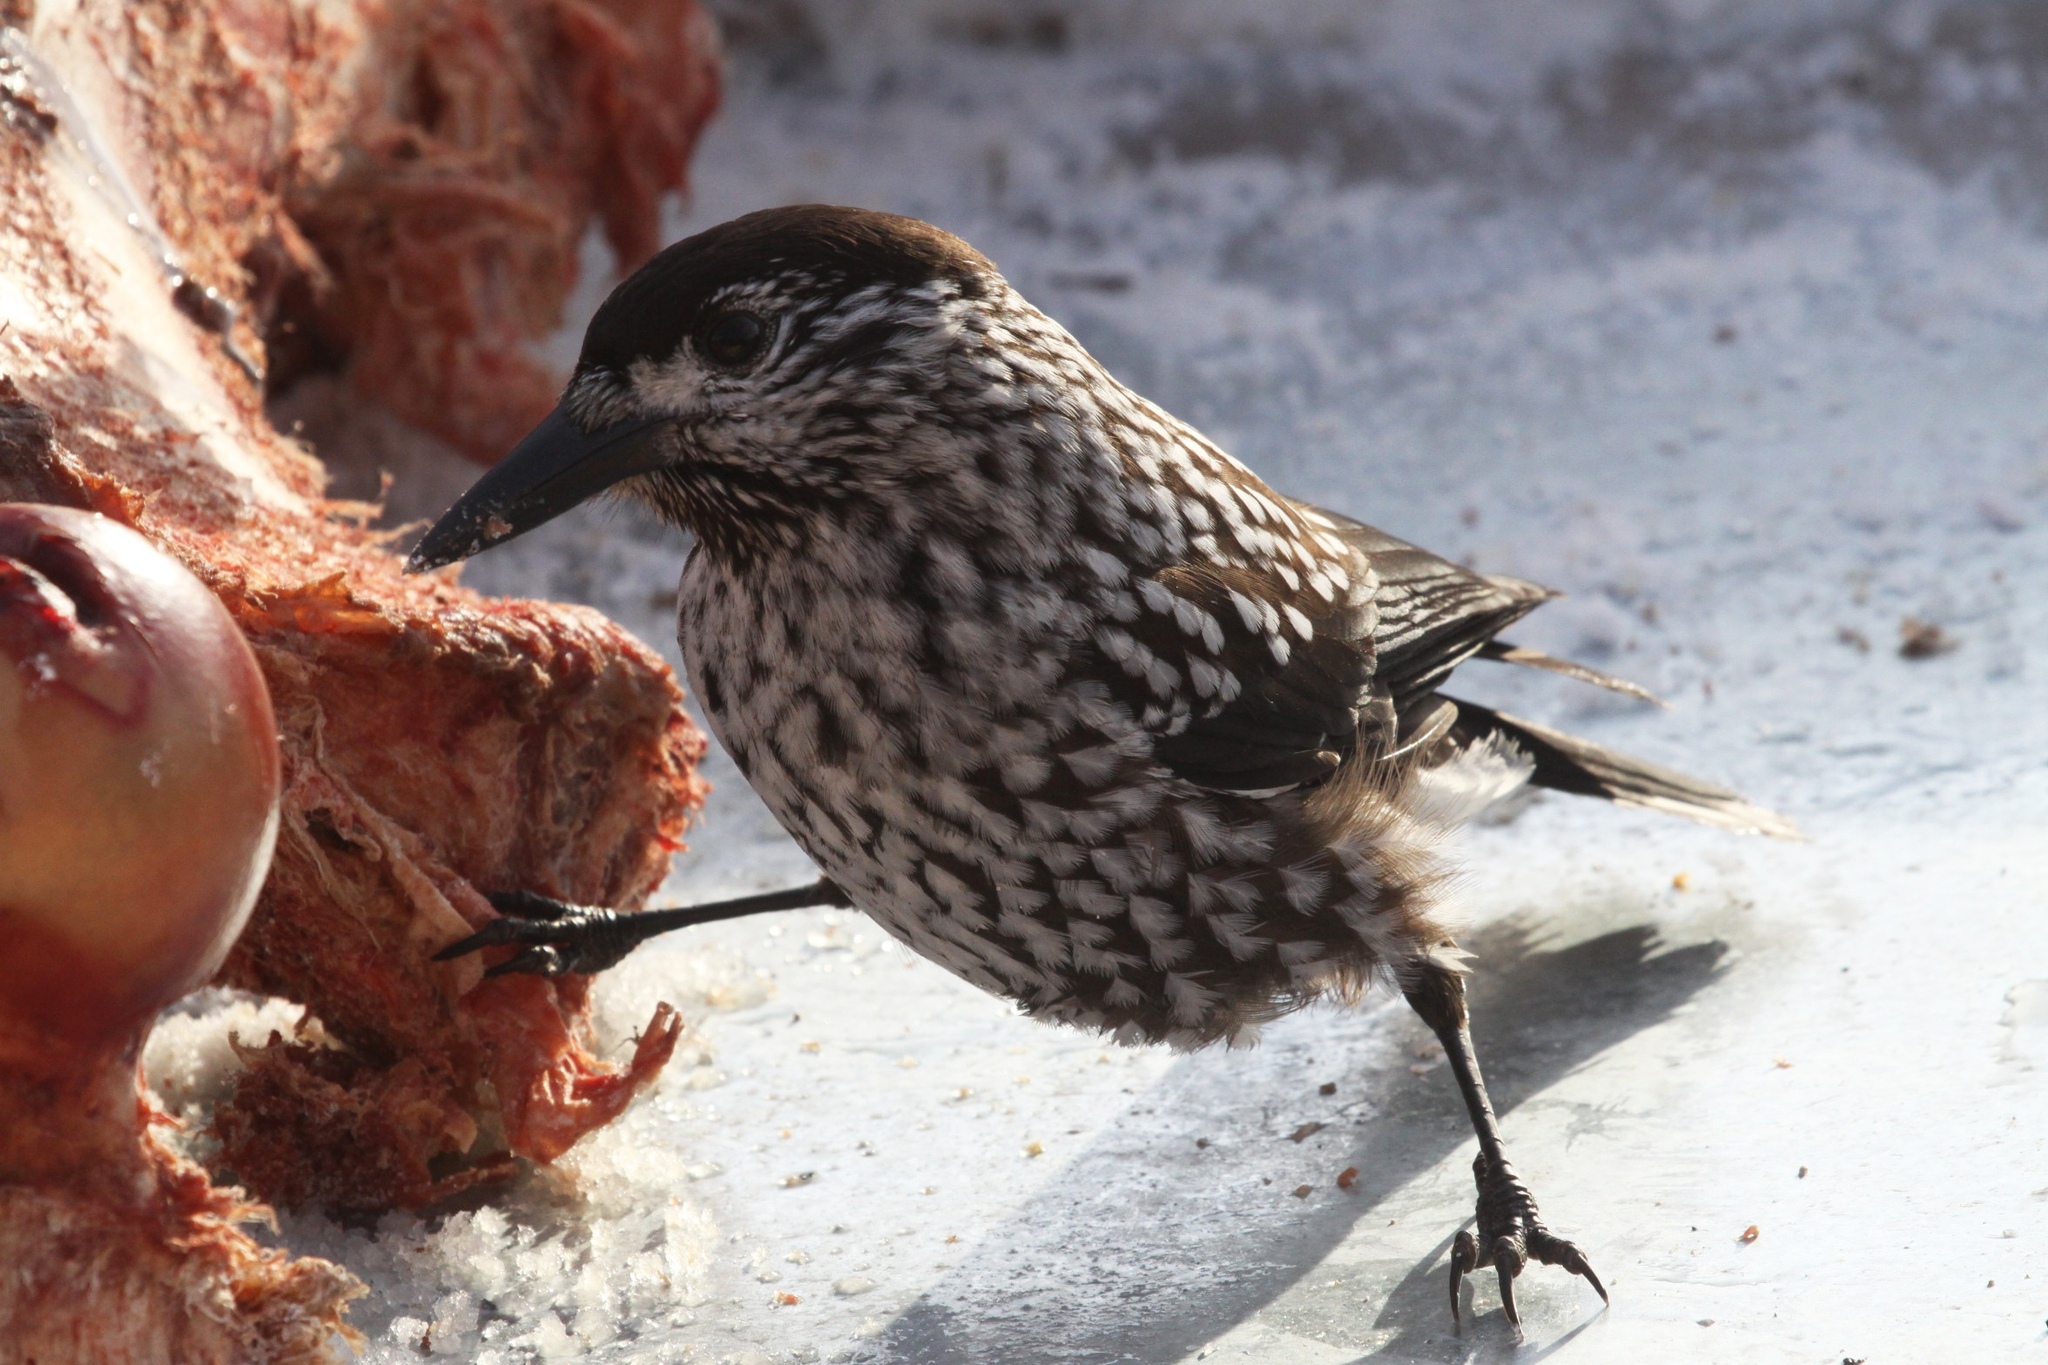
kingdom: Animalia
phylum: Chordata
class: Aves
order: Passeriformes
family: Corvidae
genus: Nucifraga
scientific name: Nucifraga caryocatactes
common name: Spotted nutcracker
